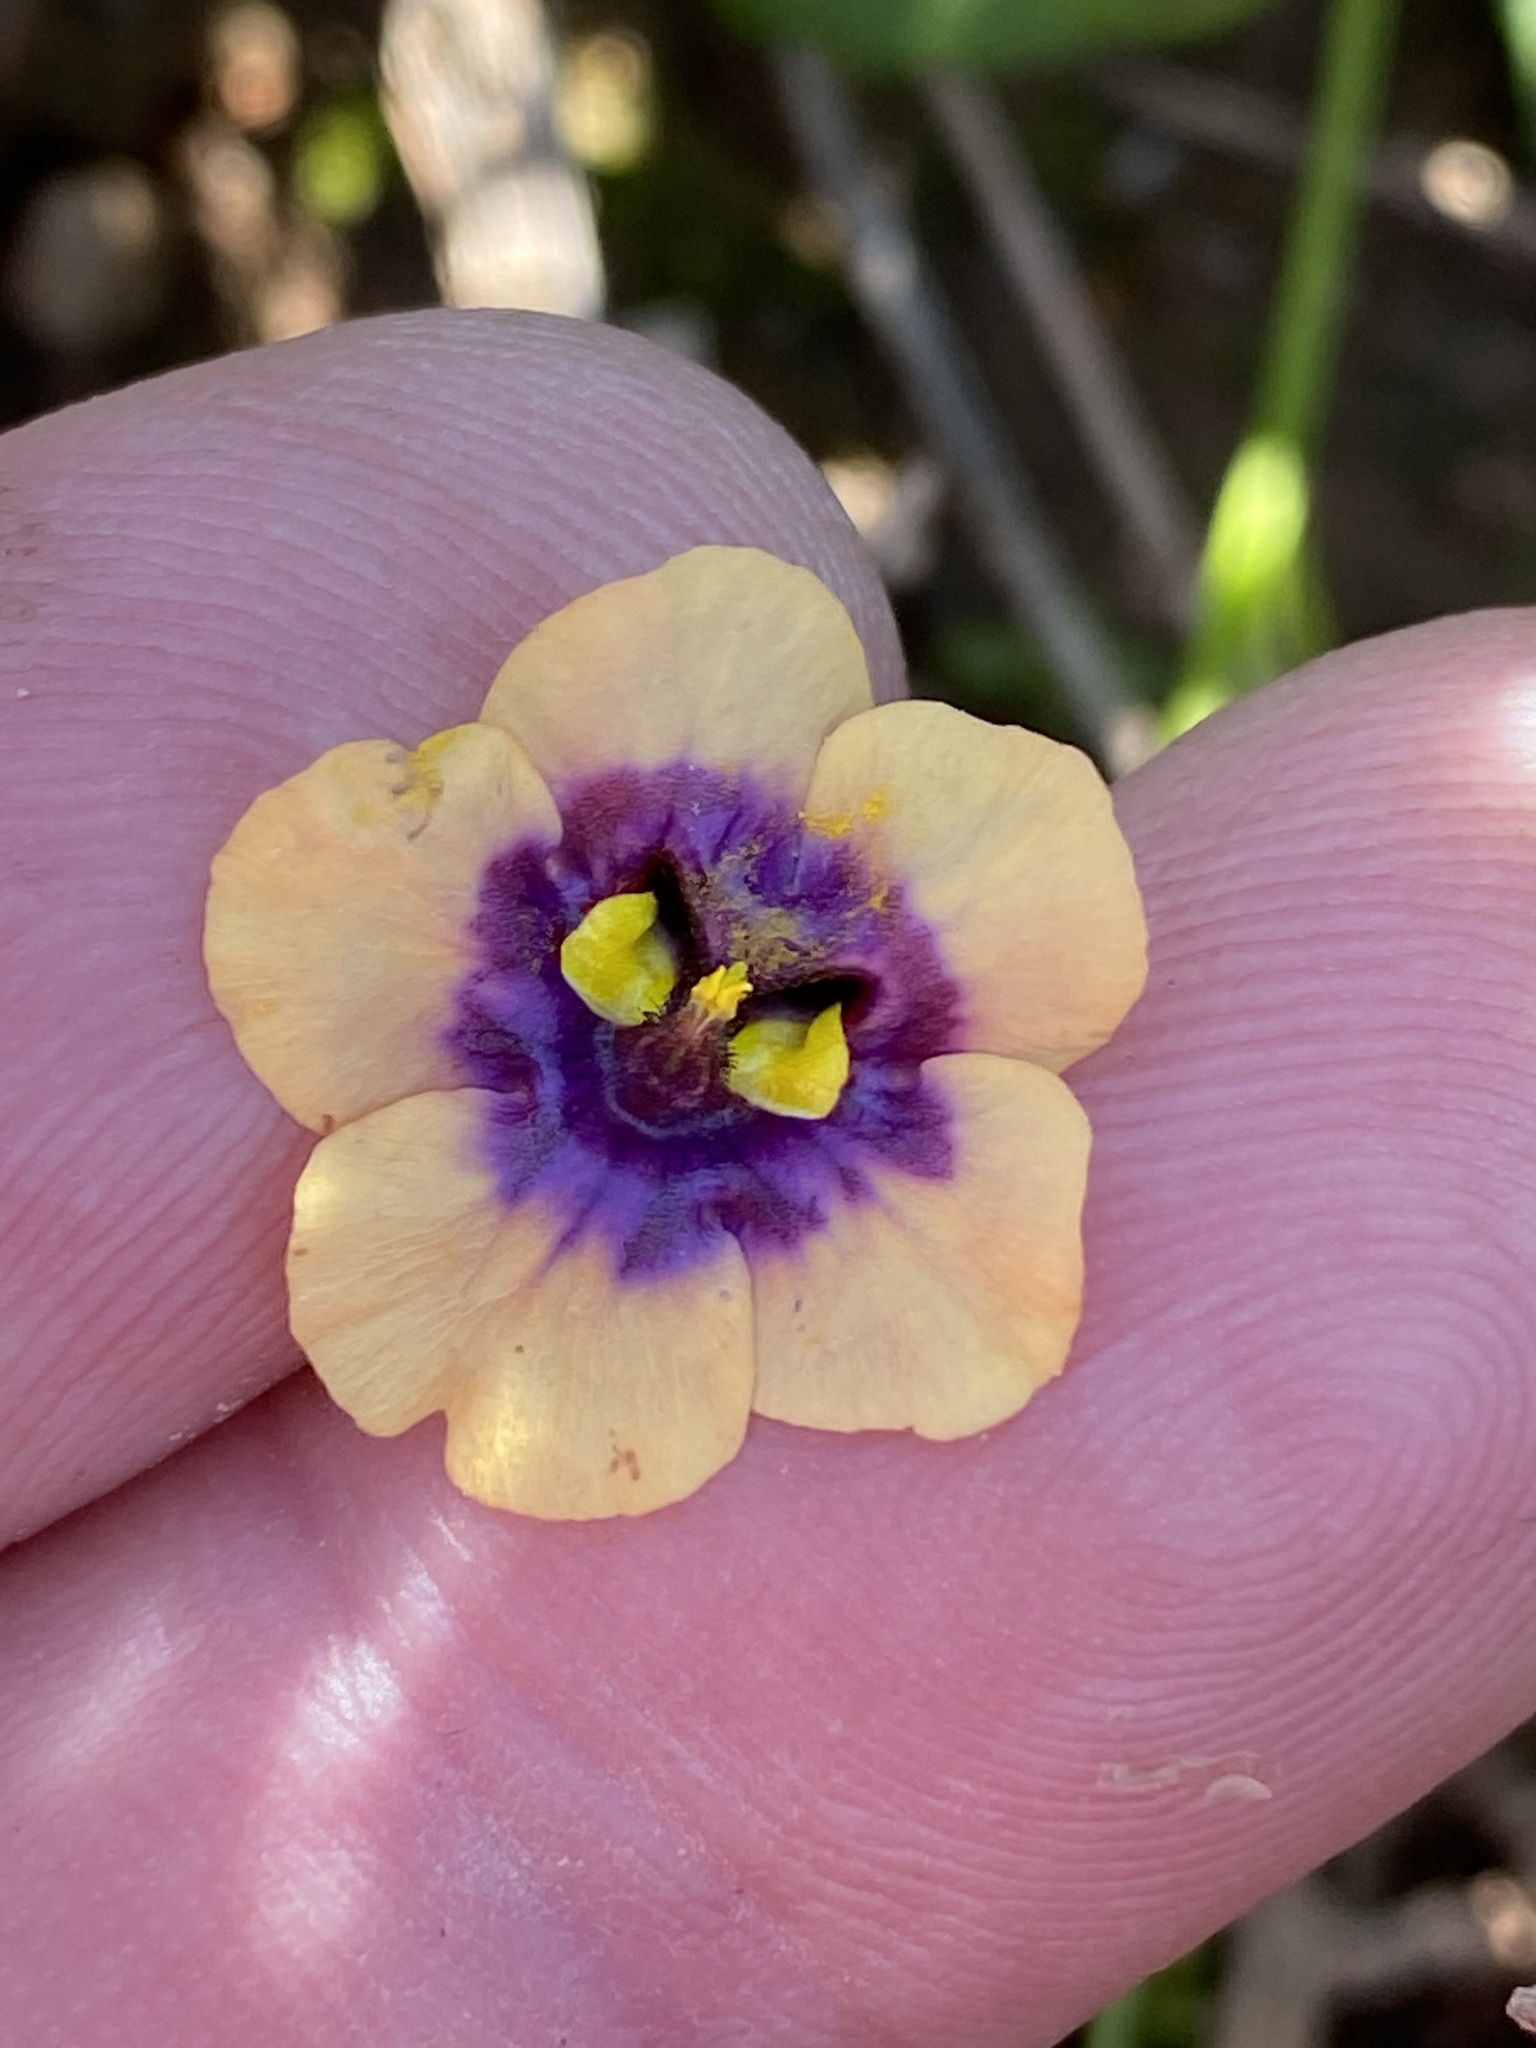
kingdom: Plantae
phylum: Tracheophyta
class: Magnoliopsida
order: Lamiales
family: Scrophulariaceae
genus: Diascia
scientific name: Diascia bicolor
